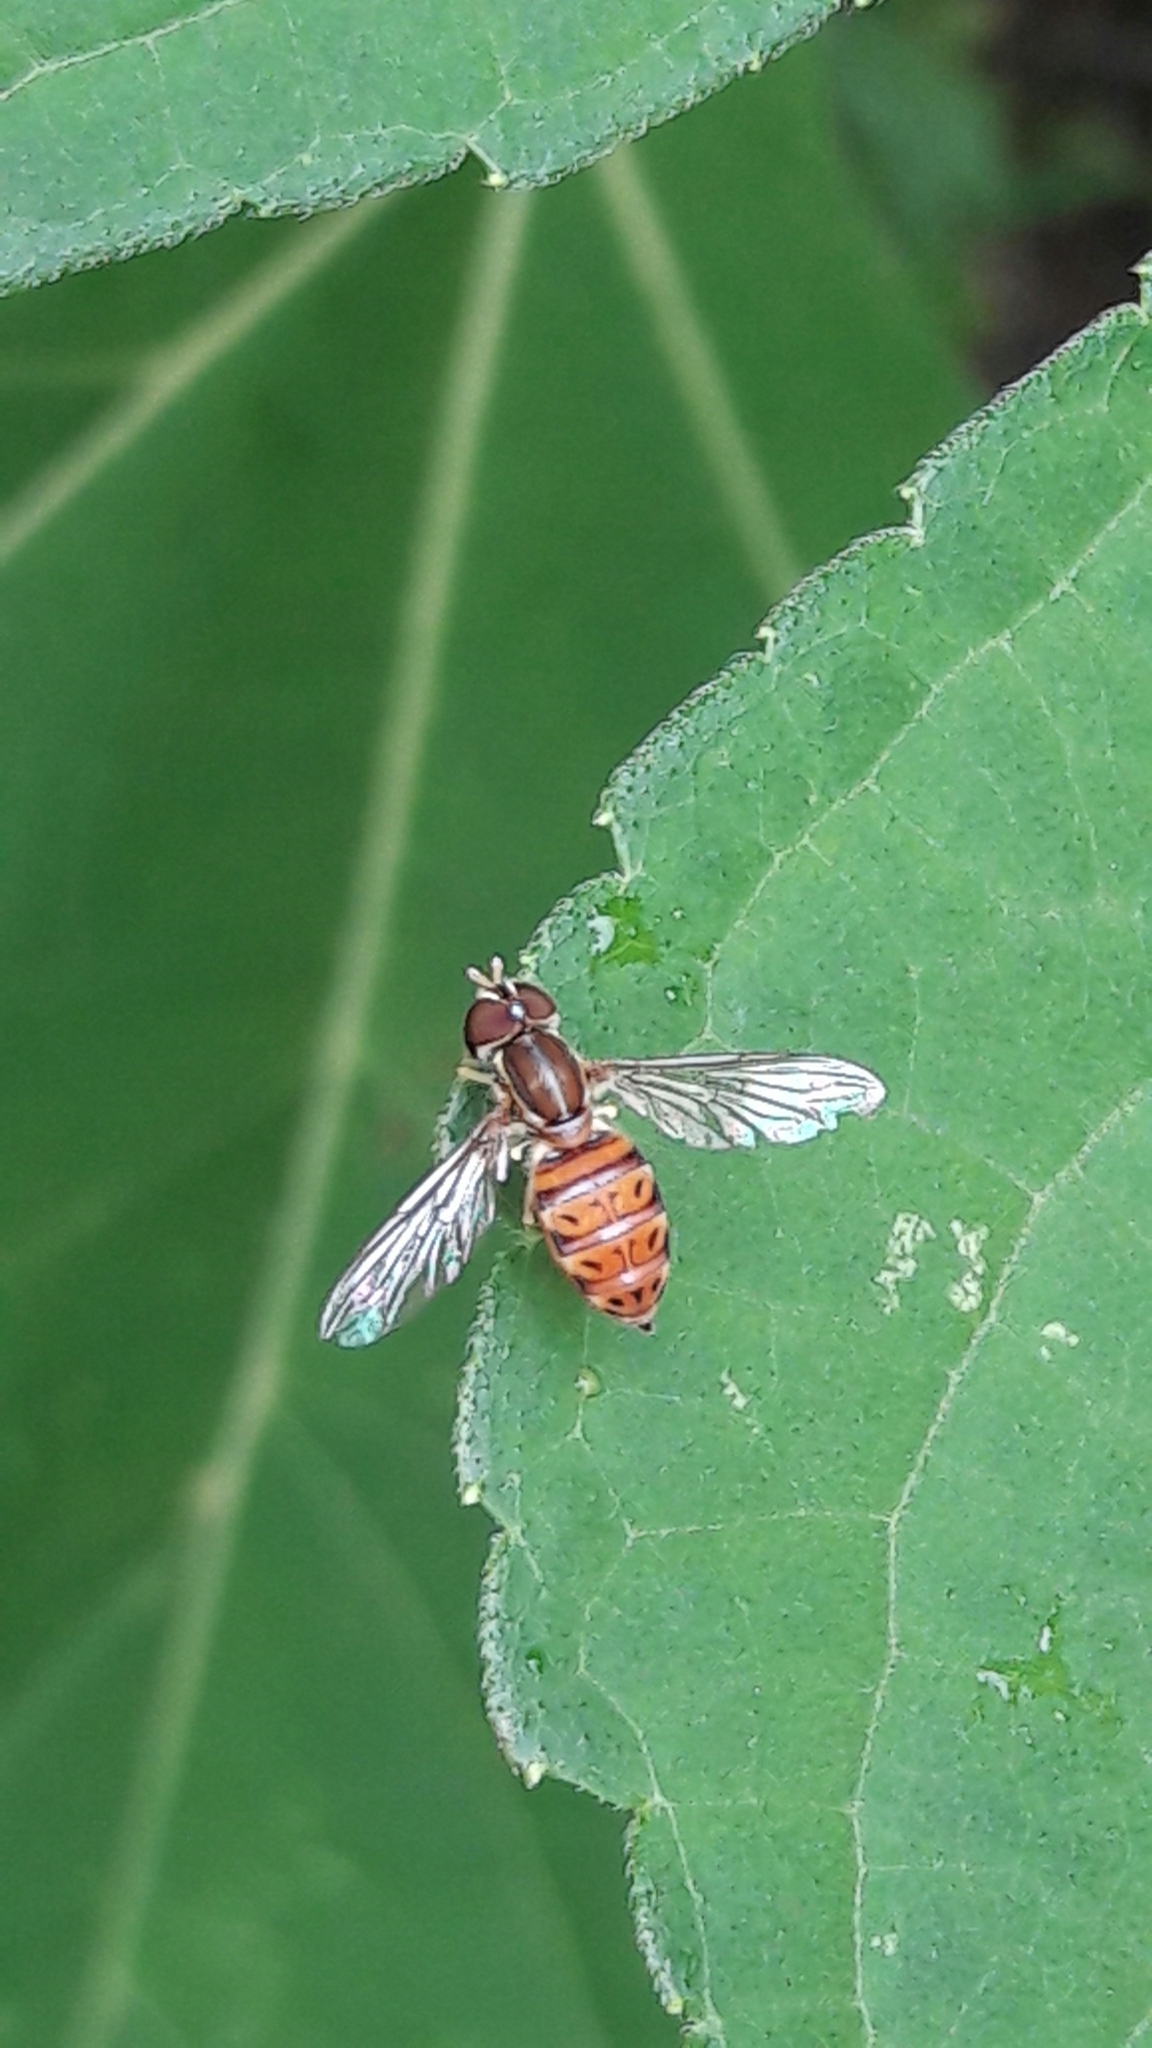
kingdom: Animalia
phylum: Arthropoda
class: Insecta
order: Diptera
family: Syrphidae
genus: Toxomerus
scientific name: Toxomerus pulchellus
